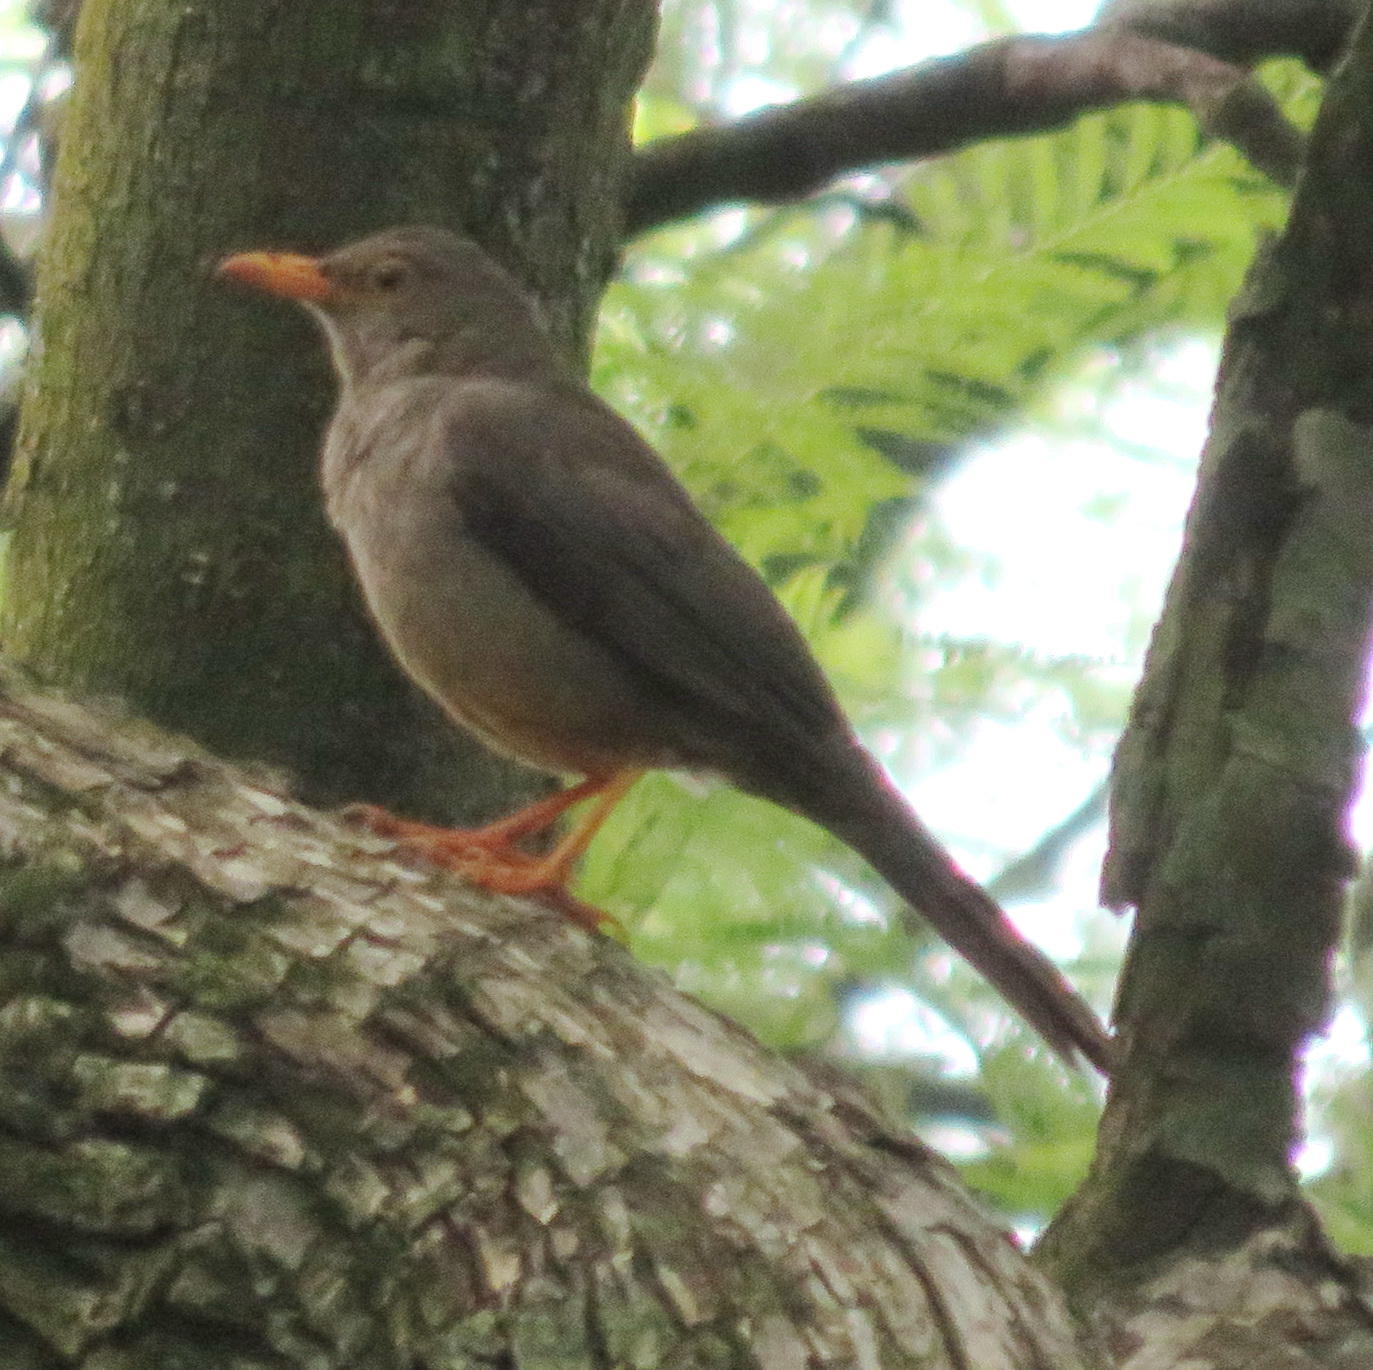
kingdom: Animalia
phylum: Chordata
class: Aves
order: Passeriformes
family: Turdidae
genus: Turdus
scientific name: Turdus smithi
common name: Karoo thrush
